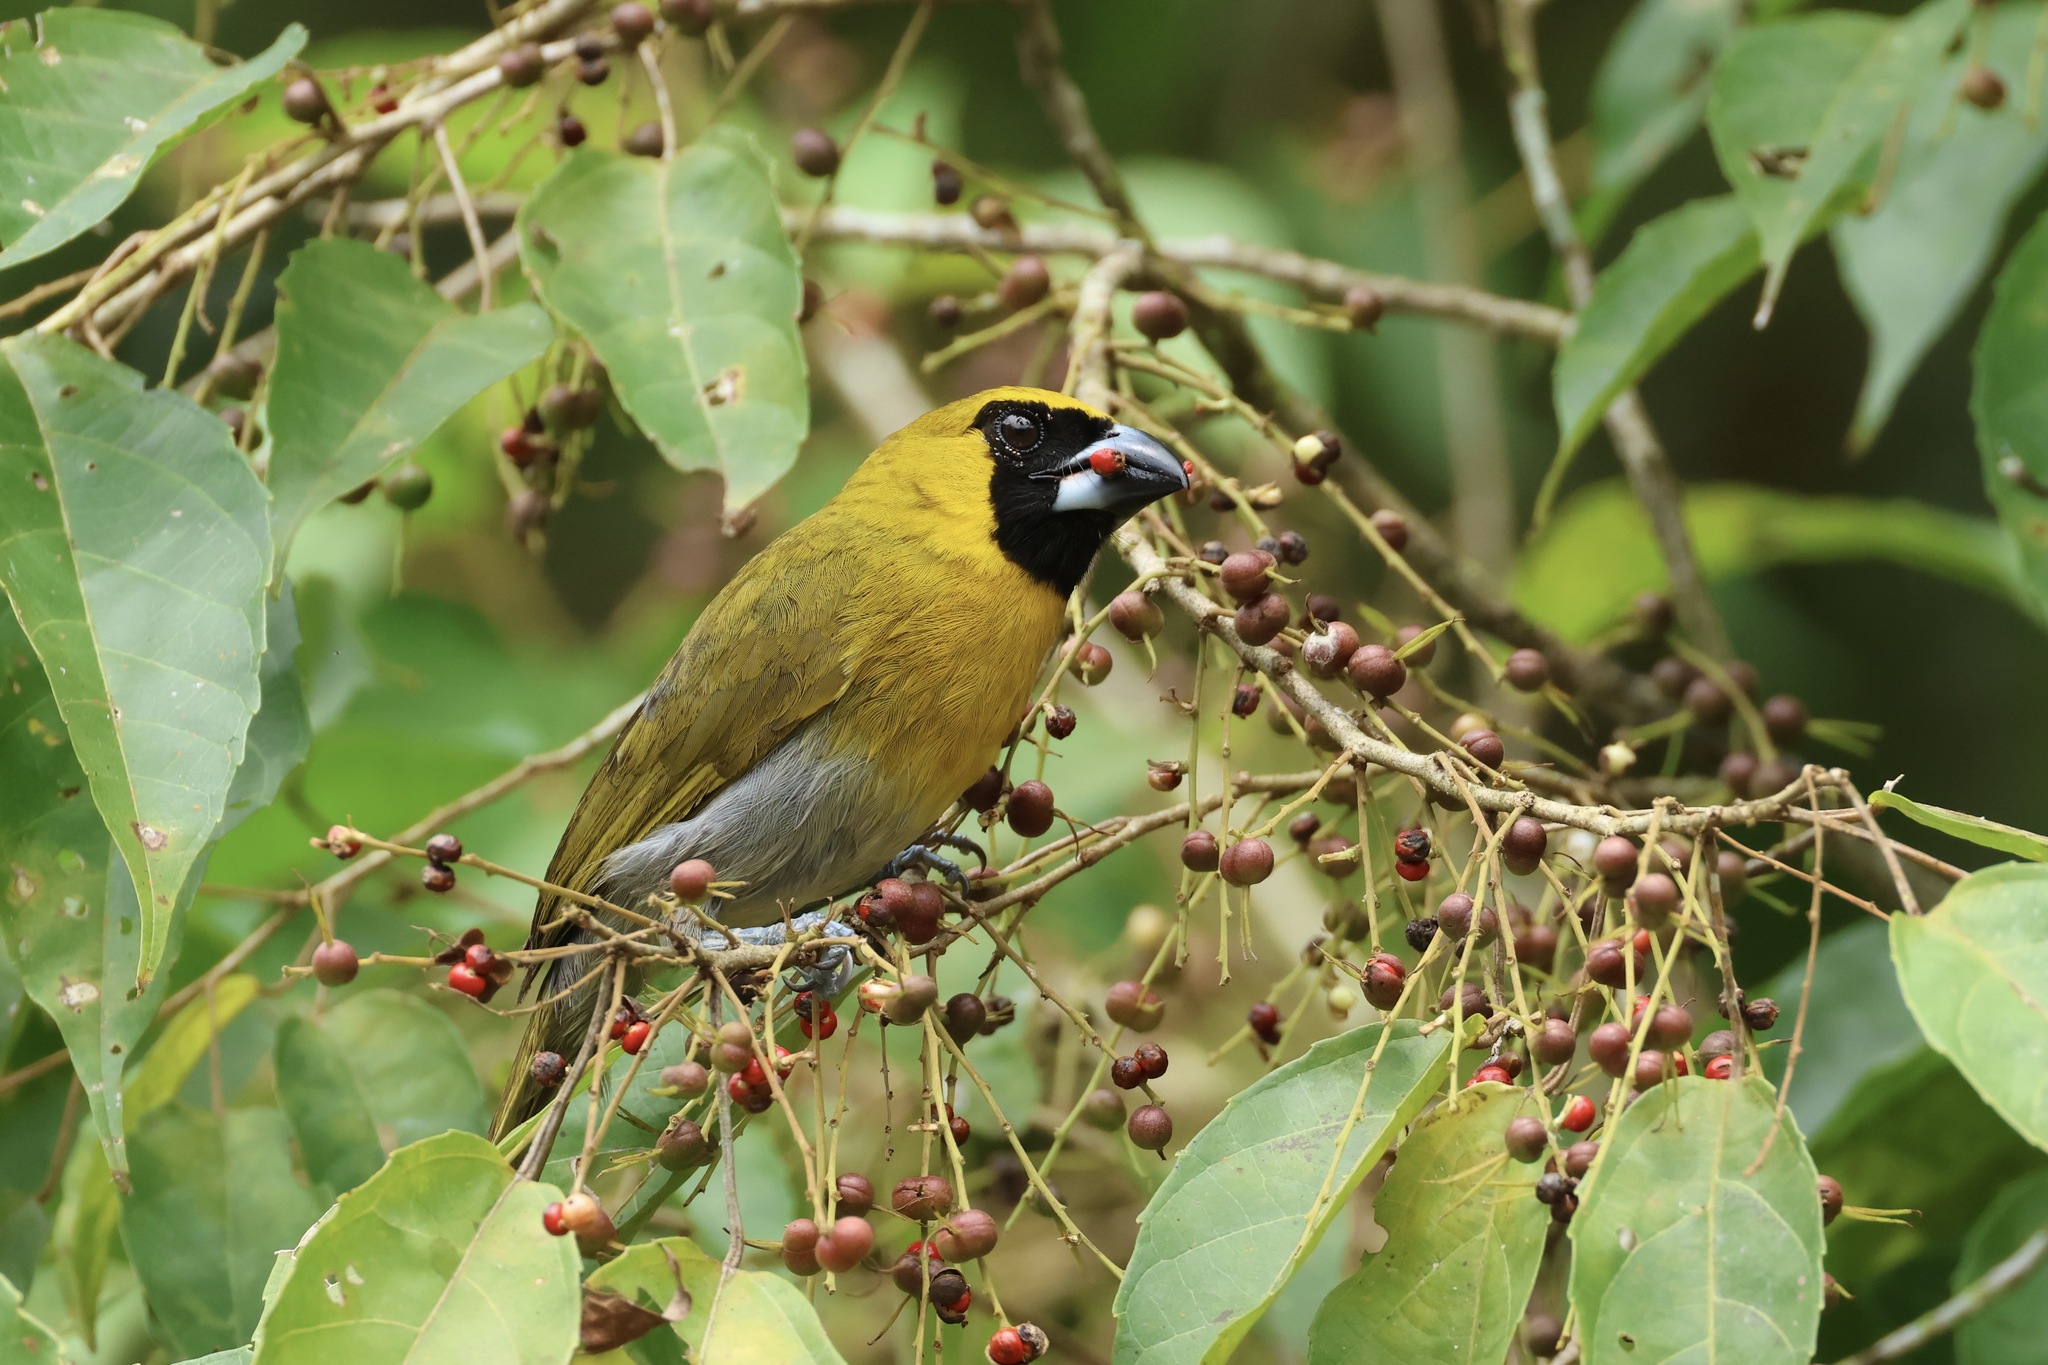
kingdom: Animalia
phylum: Chordata
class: Aves
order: Passeriformes
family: Cardinalidae
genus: Caryothraustes
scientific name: Caryothraustes poliogaster
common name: Black-faced grosbeak
